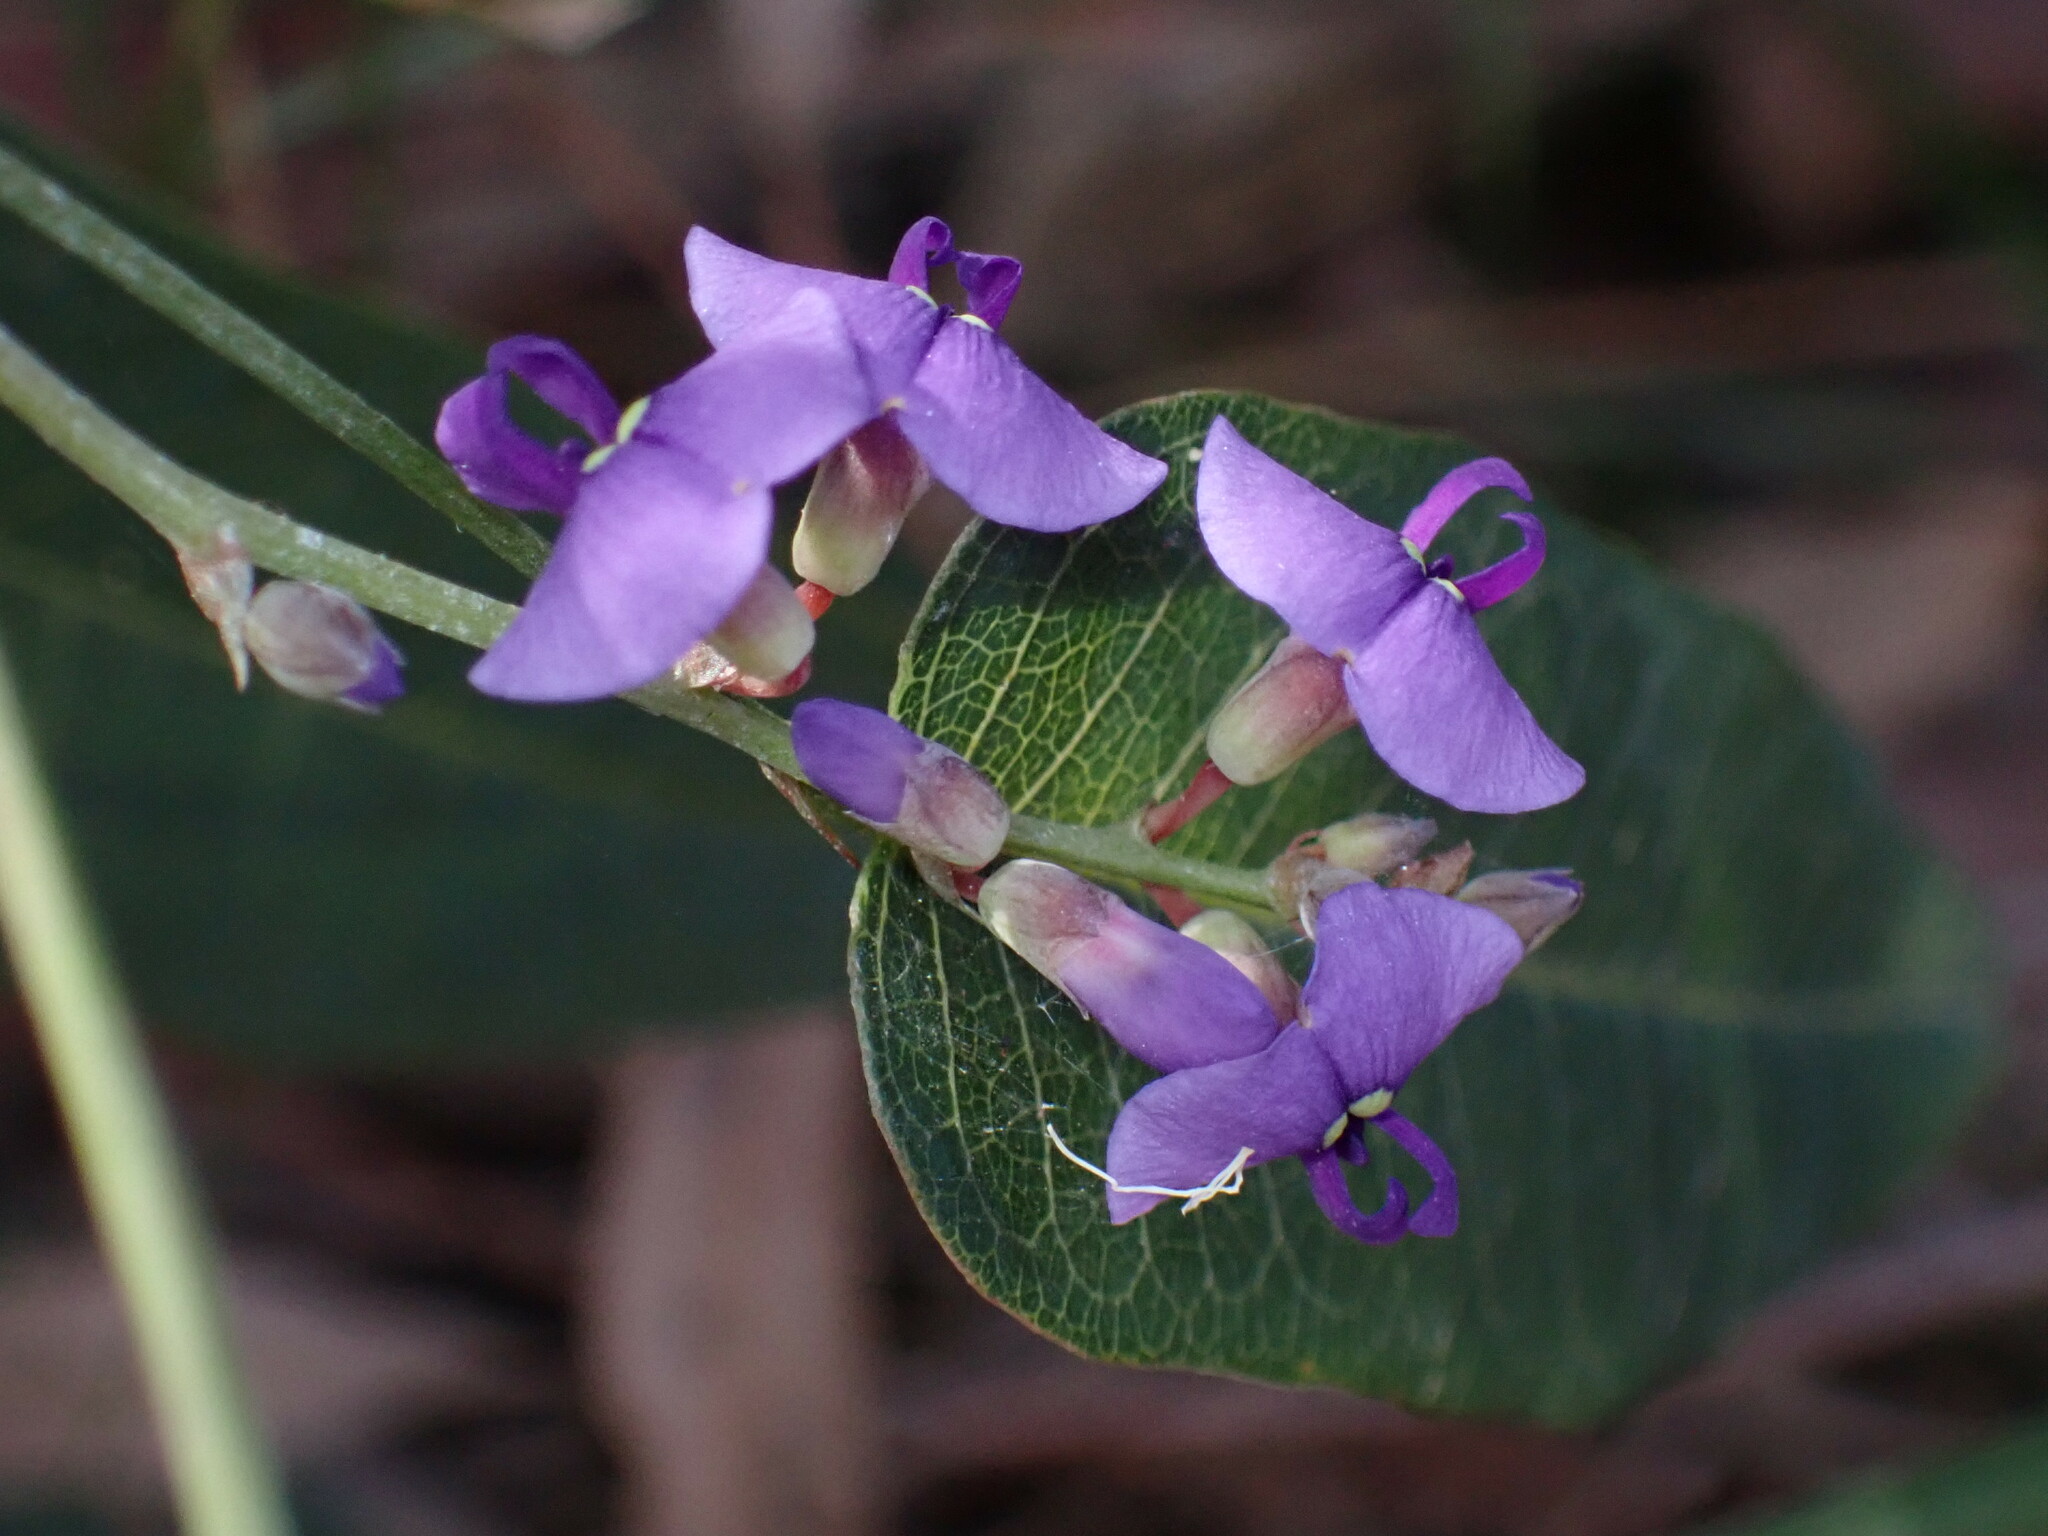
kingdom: Plantae
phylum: Tracheophyta
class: Magnoliopsida
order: Fabales
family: Fabaceae
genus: Hardenbergia
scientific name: Hardenbergia violacea
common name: Coral-pea
